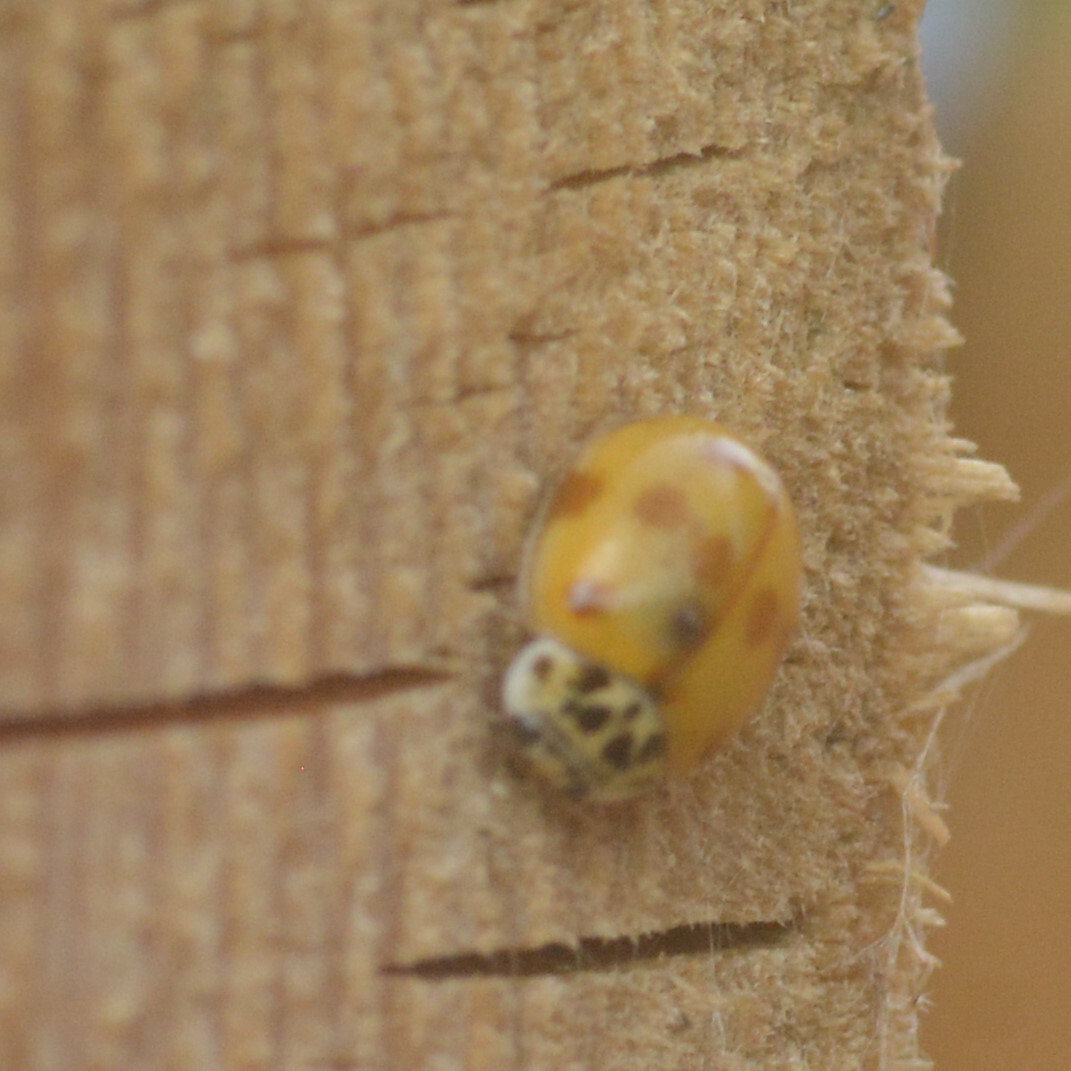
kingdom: Animalia
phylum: Arthropoda
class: Insecta
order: Coleoptera
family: Coccinellidae
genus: Adalia
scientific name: Adalia decempunctata
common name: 10-spot ladybird
